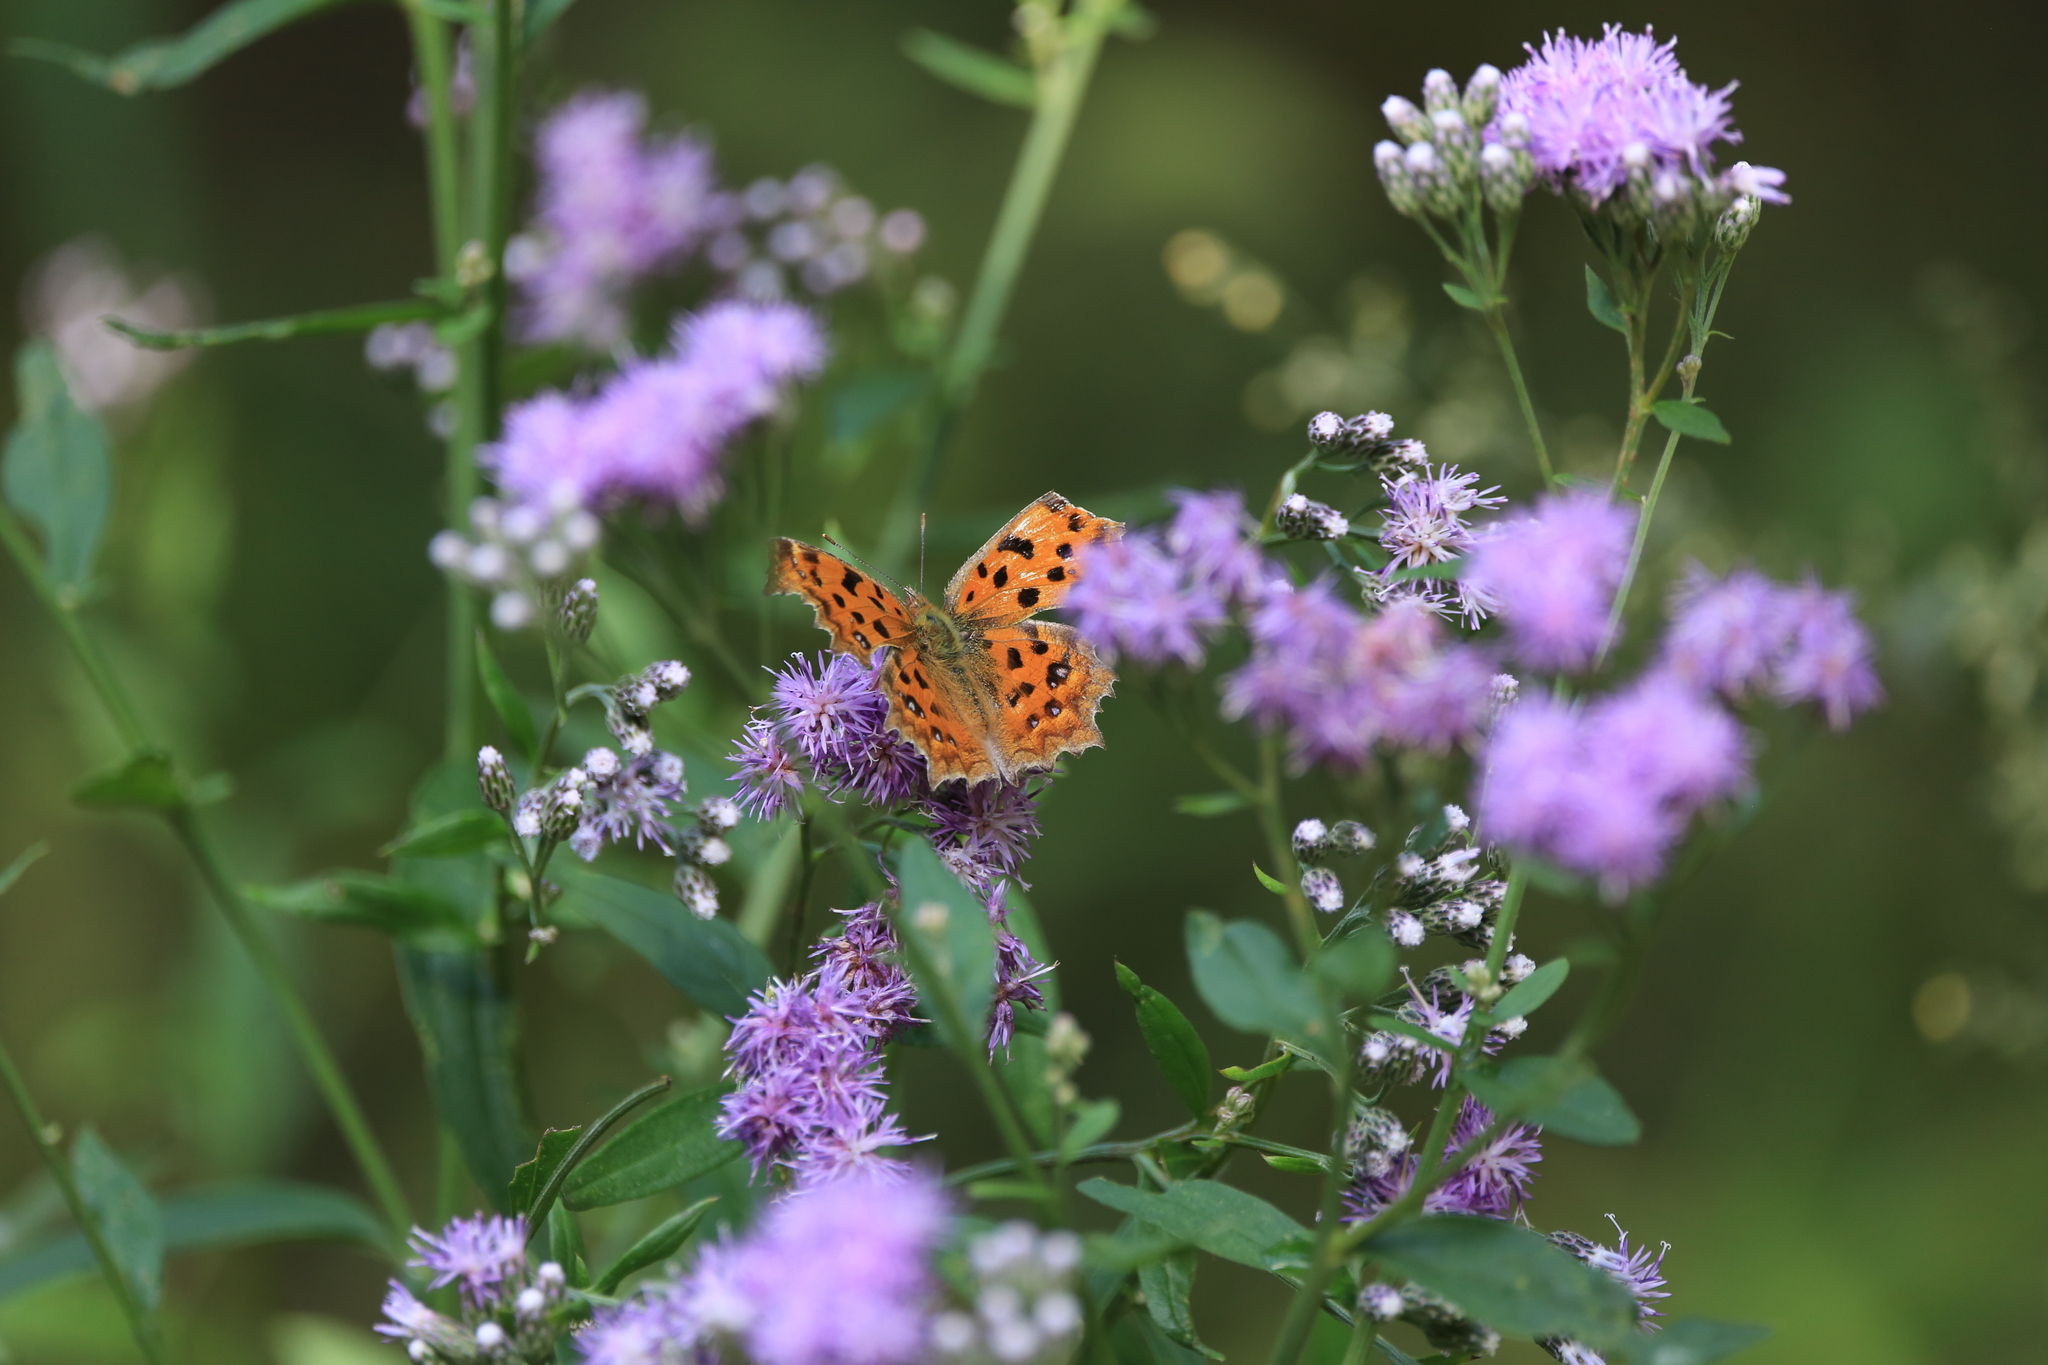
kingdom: Animalia
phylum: Arthropoda
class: Insecta
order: Lepidoptera
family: Nymphalidae
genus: Polygonia
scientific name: Polygonia c-aureum
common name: Asian comma
